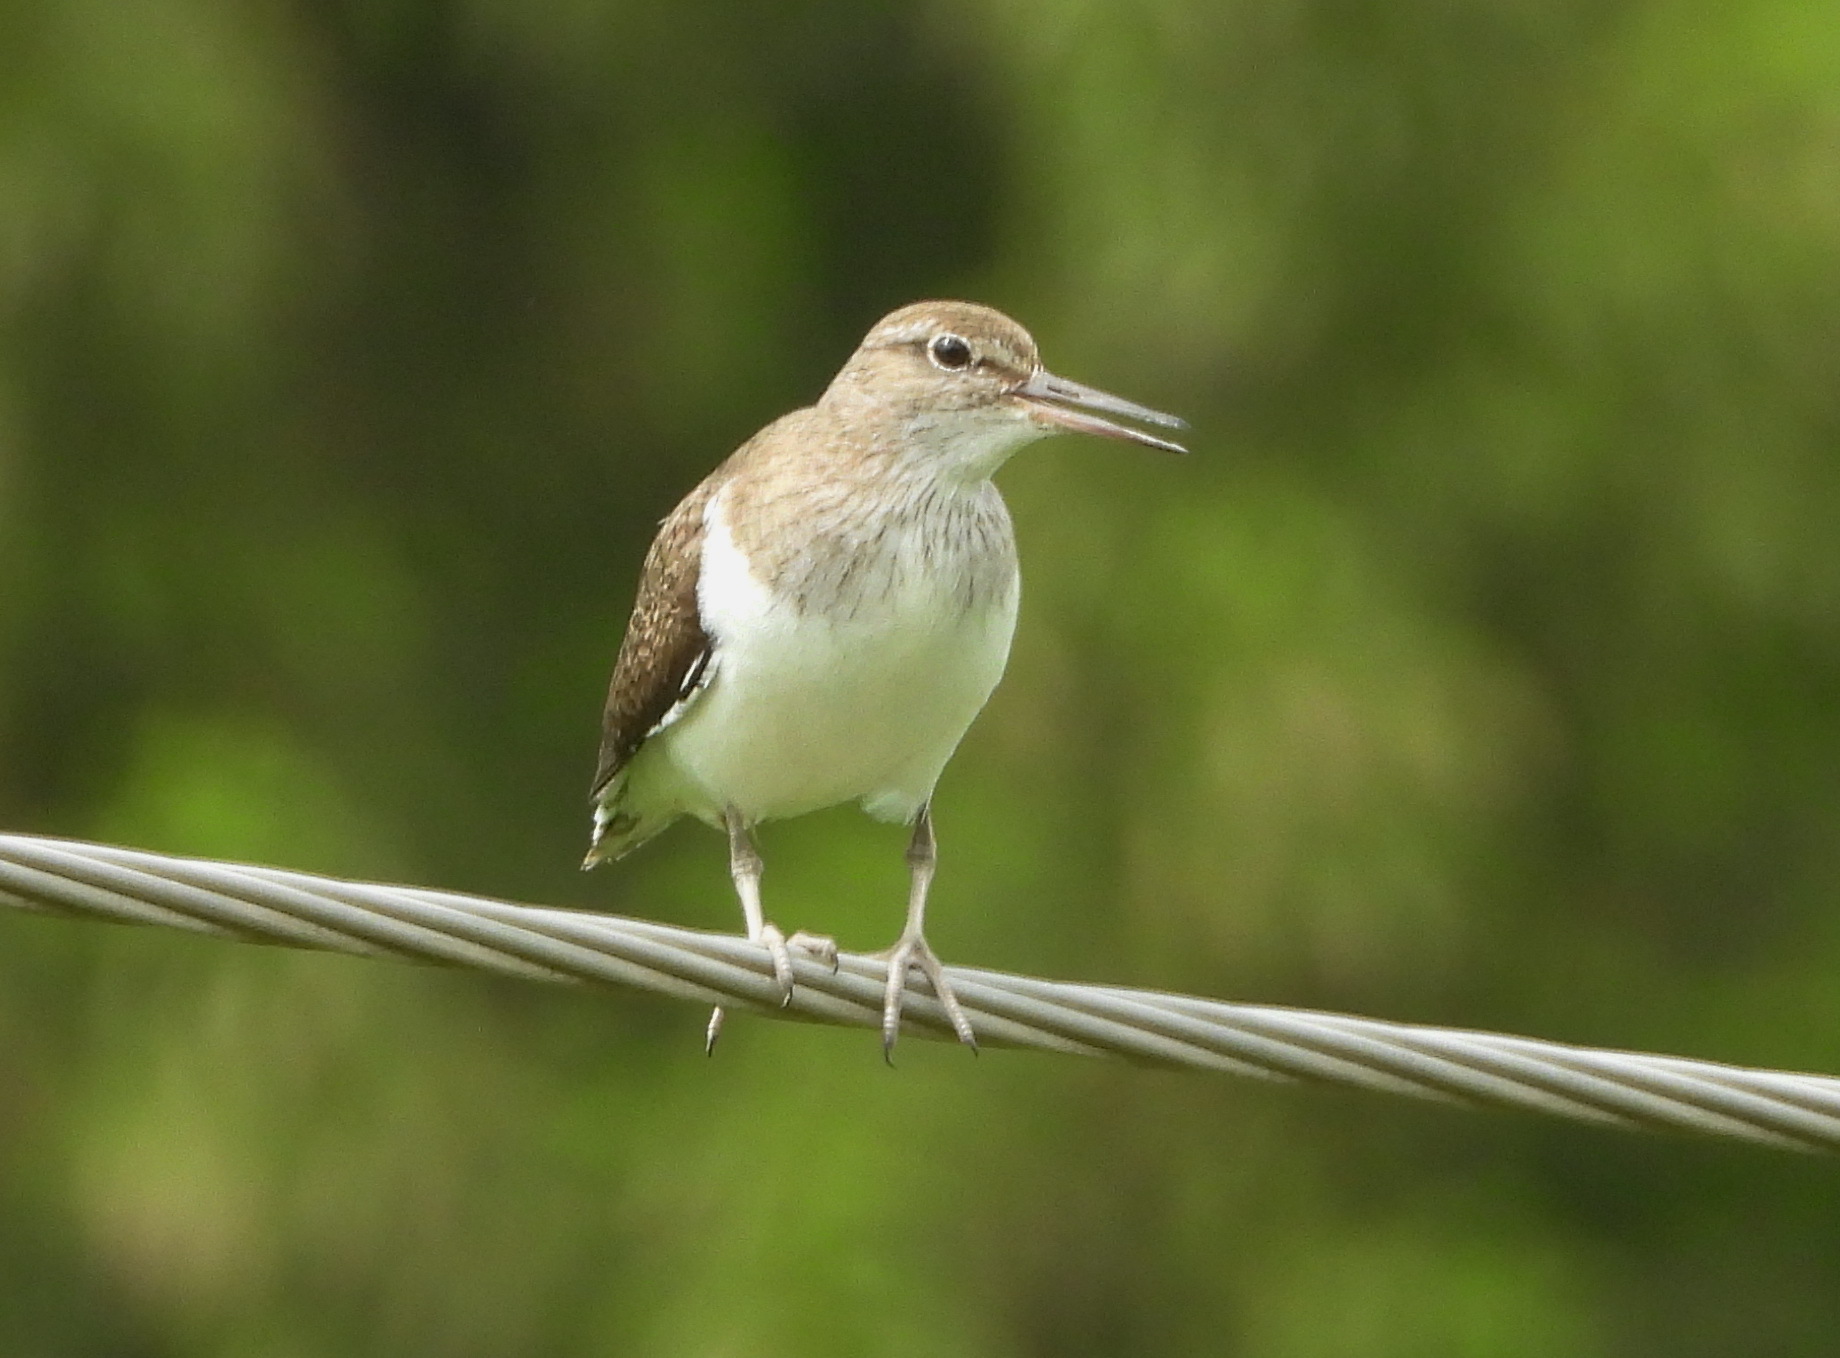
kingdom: Animalia
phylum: Chordata
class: Aves
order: Charadriiformes
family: Scolopacidae
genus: Actitis
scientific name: Actitis hypoleucos
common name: Common sandpiper
